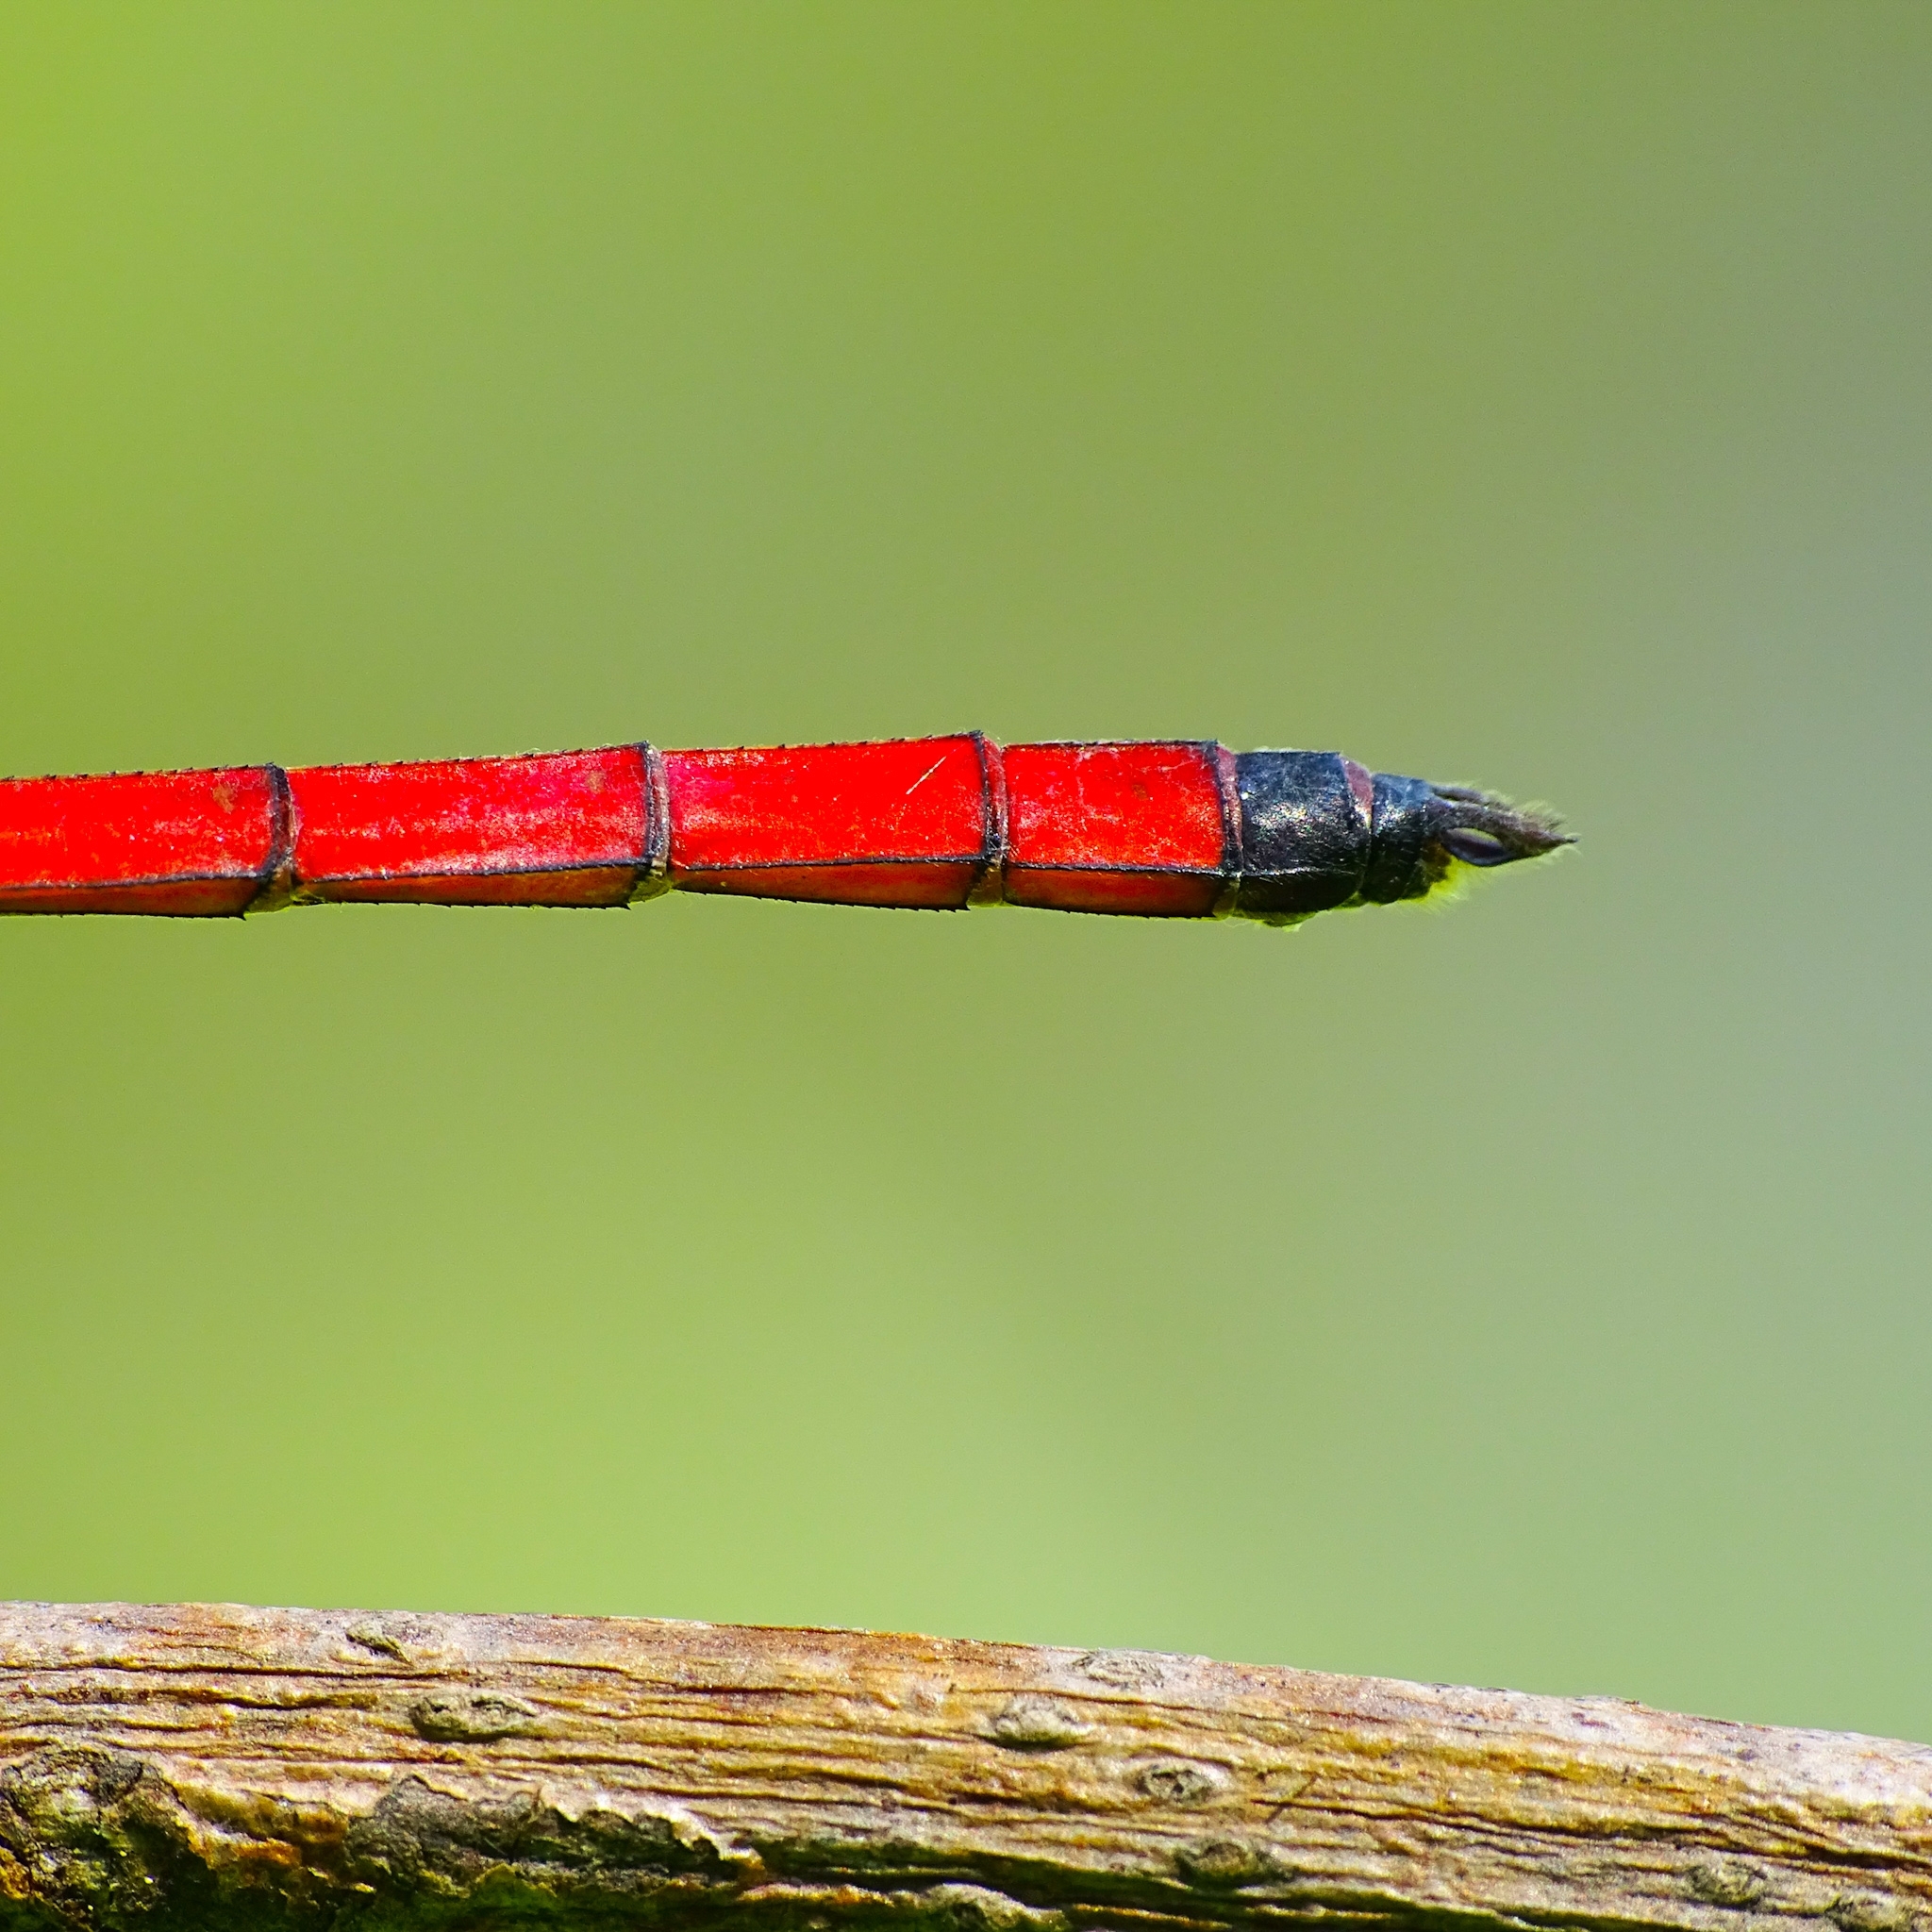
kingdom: Animalia
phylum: Arthropoda
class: Insecta
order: Odonata
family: Libellulidae
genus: Lathrecista
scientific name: Lathrecista asiatica
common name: Scarlet grenadier
